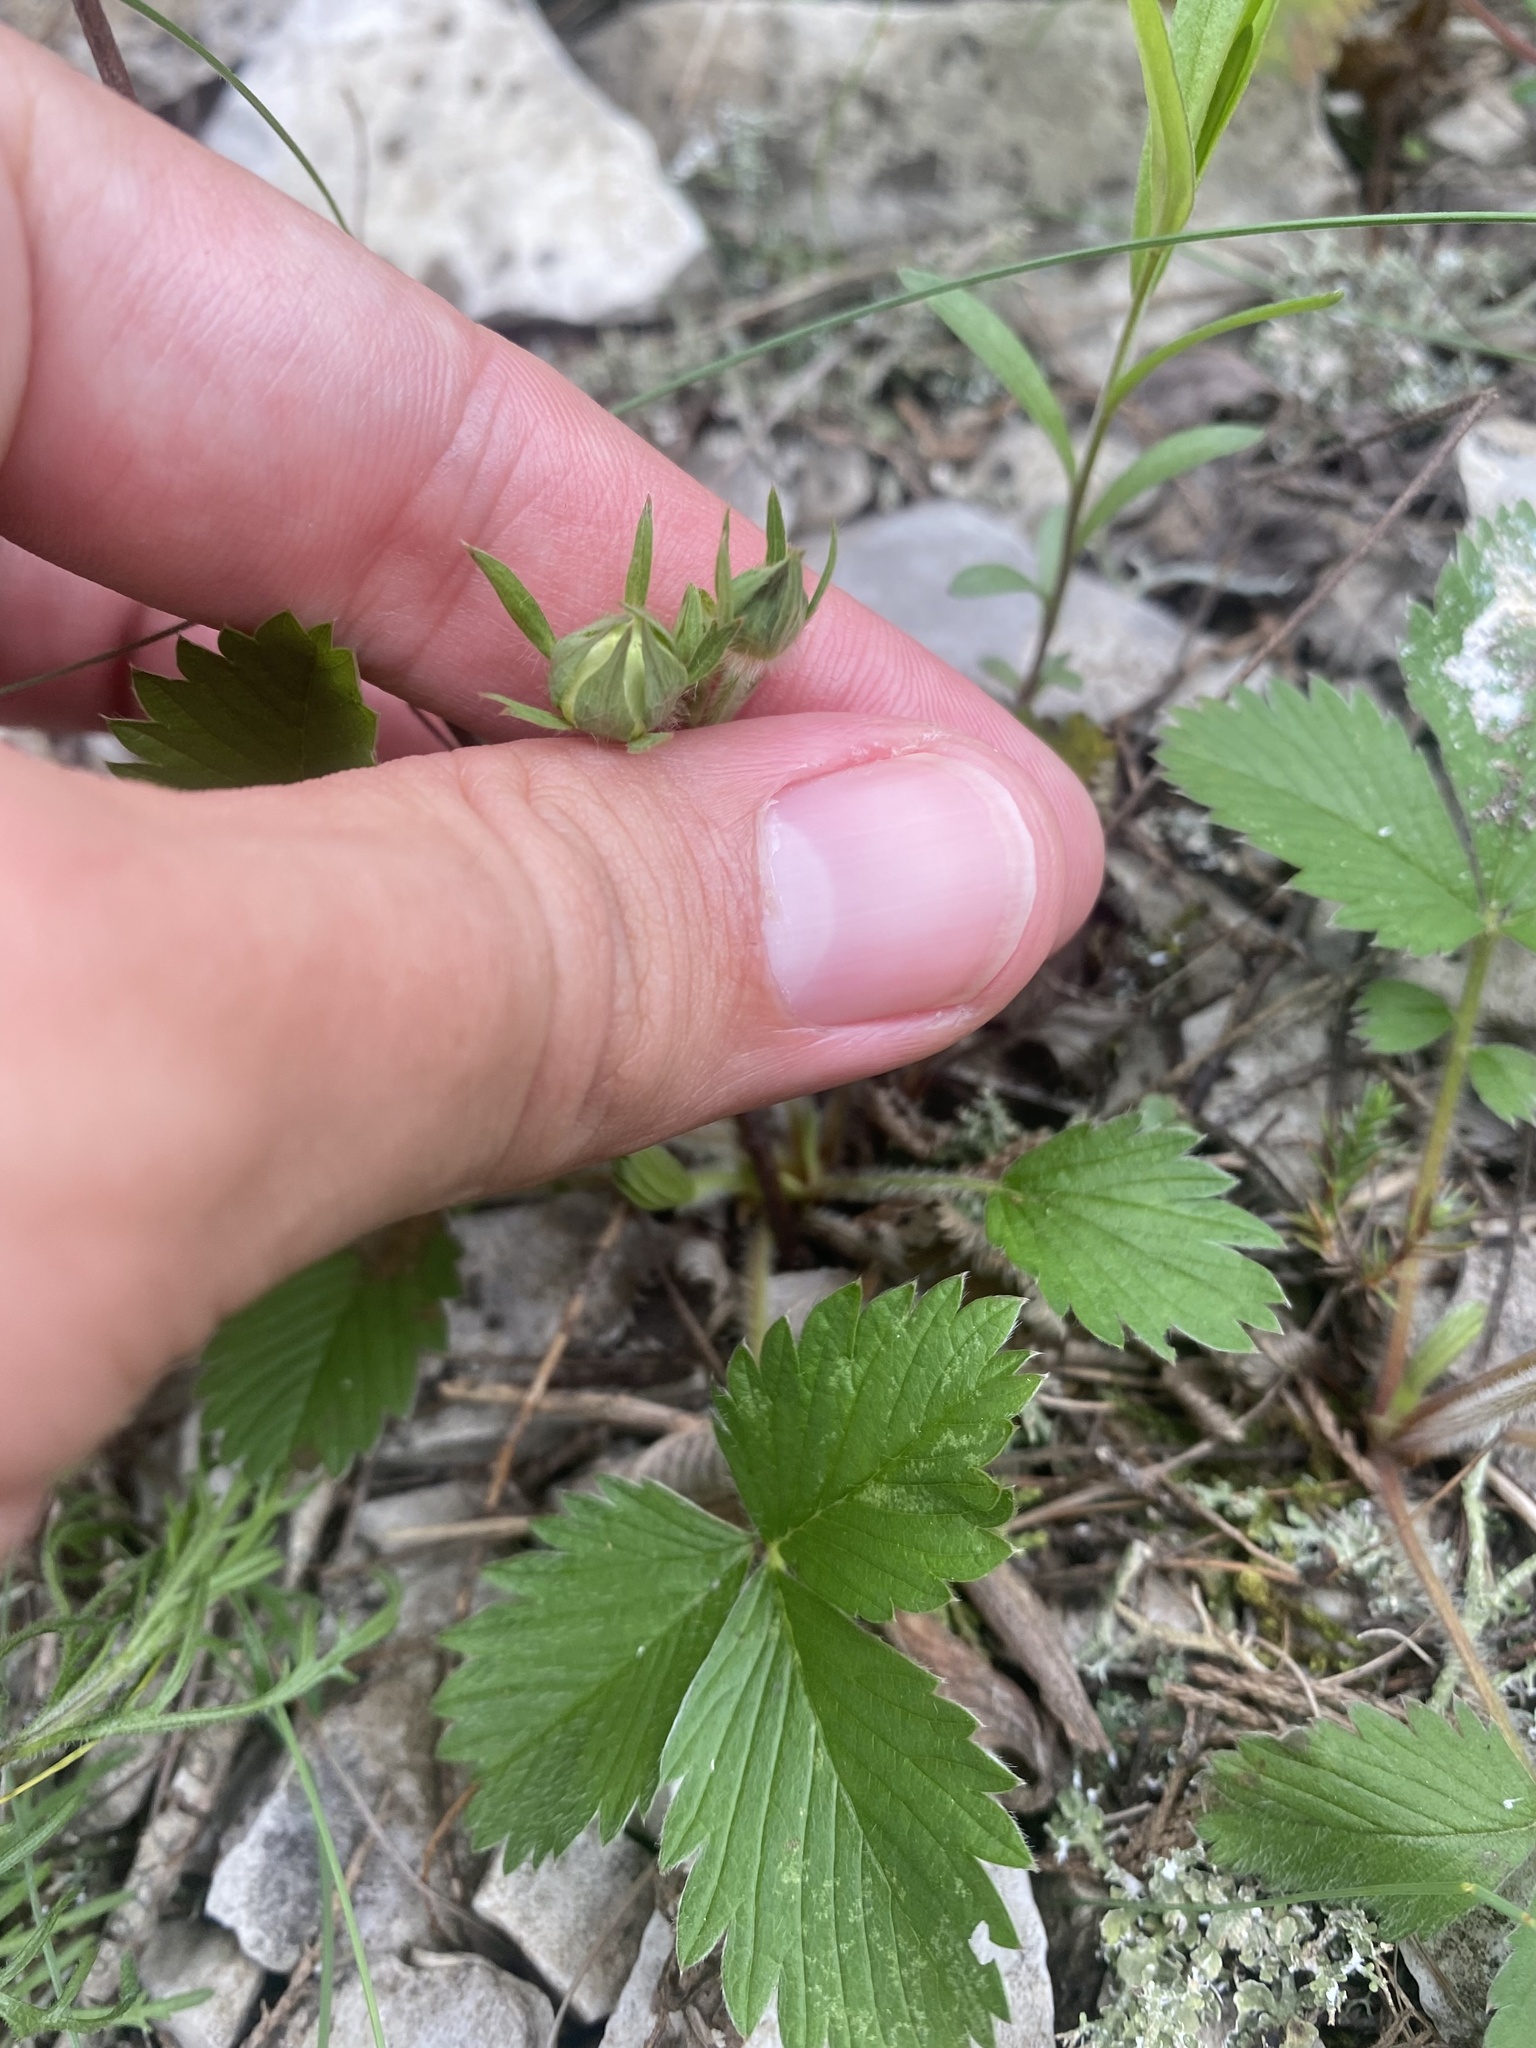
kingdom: Plantae
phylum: Tracheophyta
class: Magnoliopsida
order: Rosales
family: Rosaceae
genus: Fragaria
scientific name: Fragaria viridis
